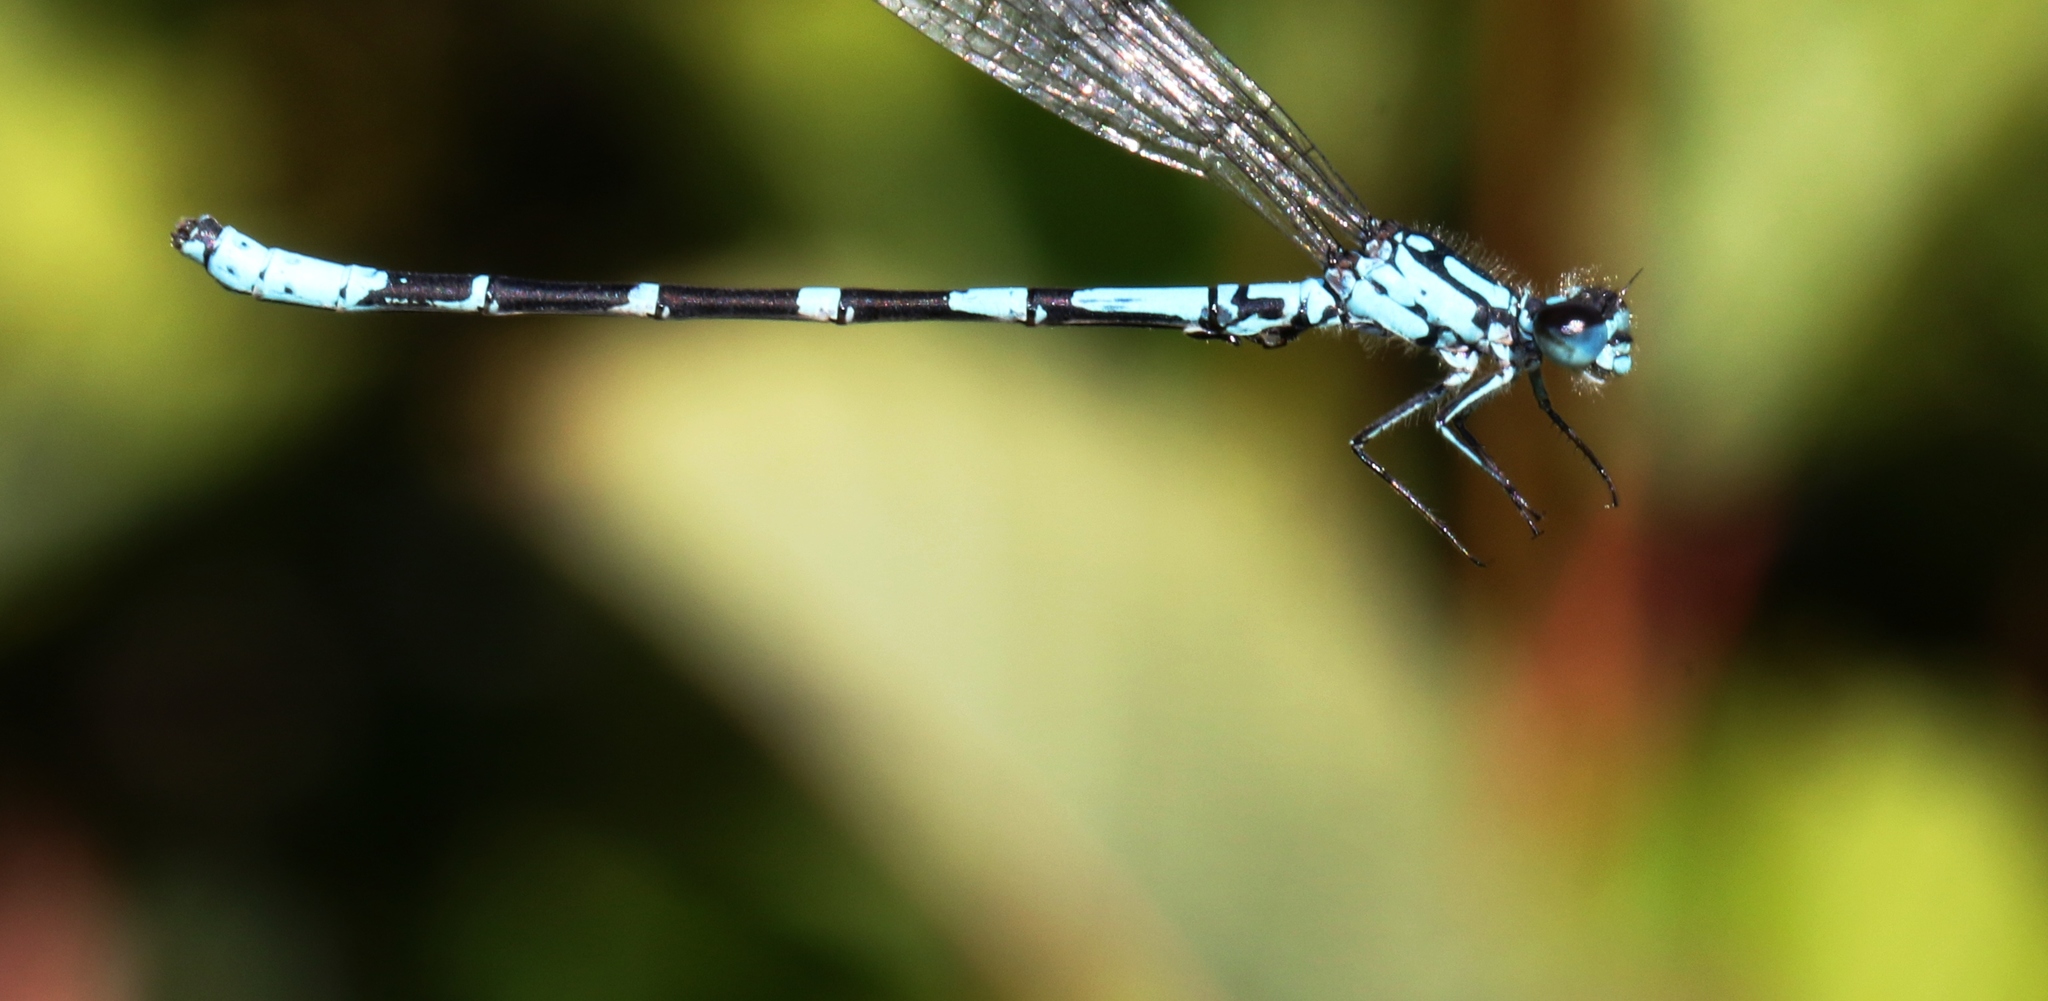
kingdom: Animalia
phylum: Arthropoda
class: Insecta
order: Odonata
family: Coenagrionidae
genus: Coenagrion
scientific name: Coenagrion interrogatum
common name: Subarctic bluet
